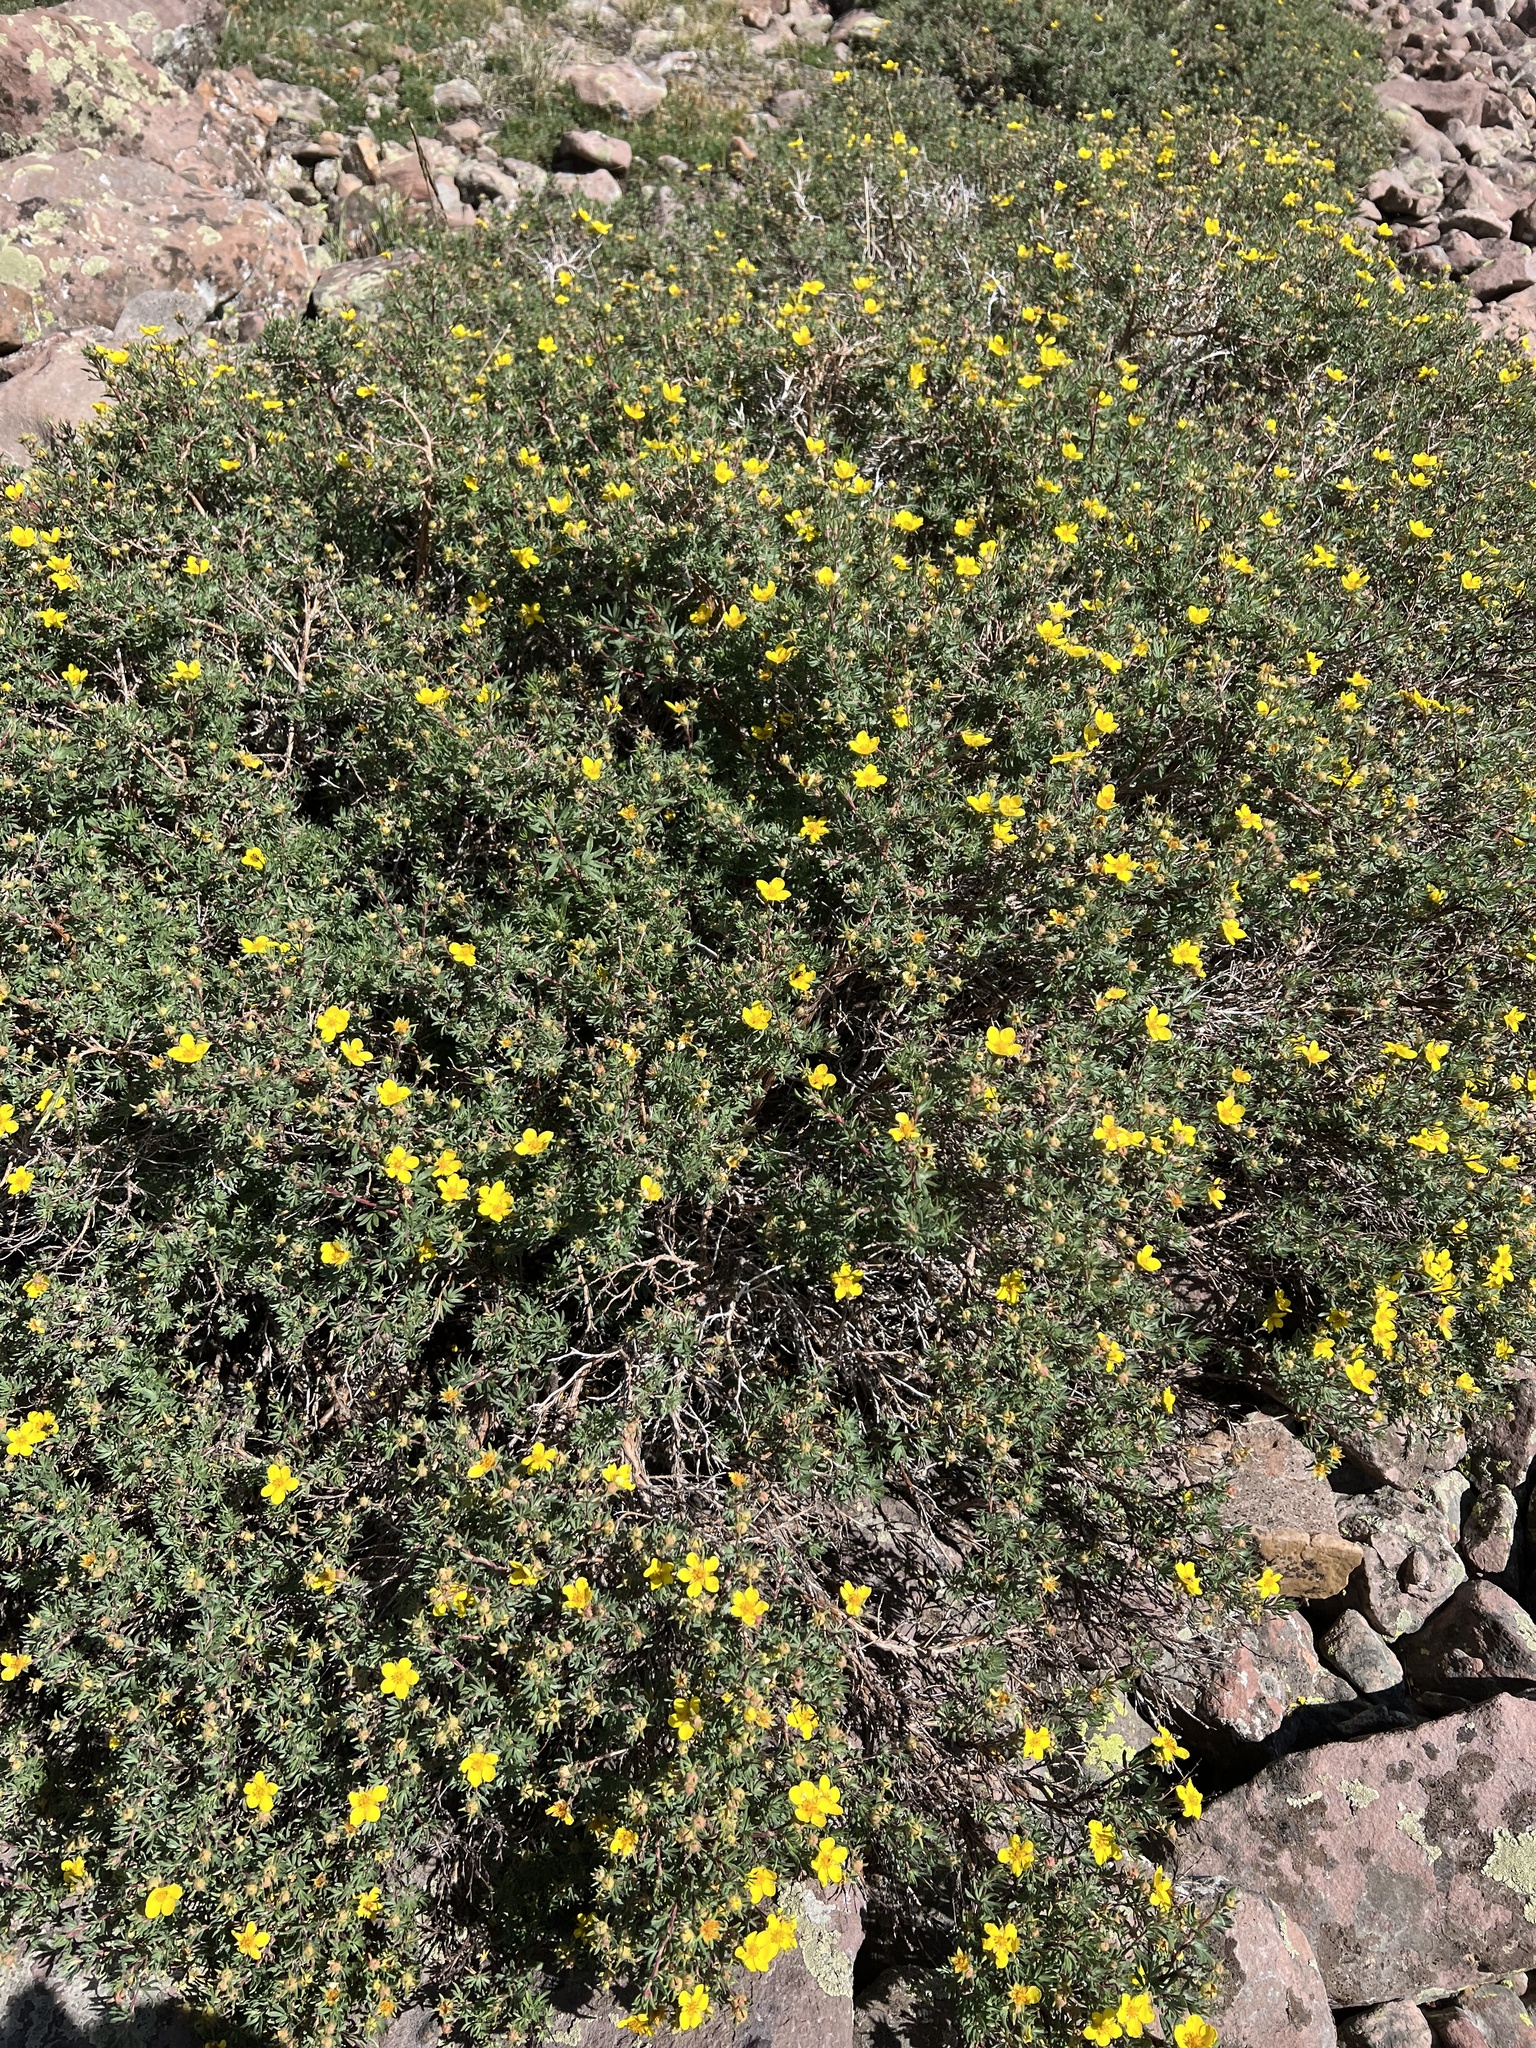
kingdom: Plantae
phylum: Tracheophyta
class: Magnoliopsida
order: Rosales
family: Rosaceae
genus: Dasiphora
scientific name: Dasiphora fruticosa
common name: Shrubby cinquefoil
